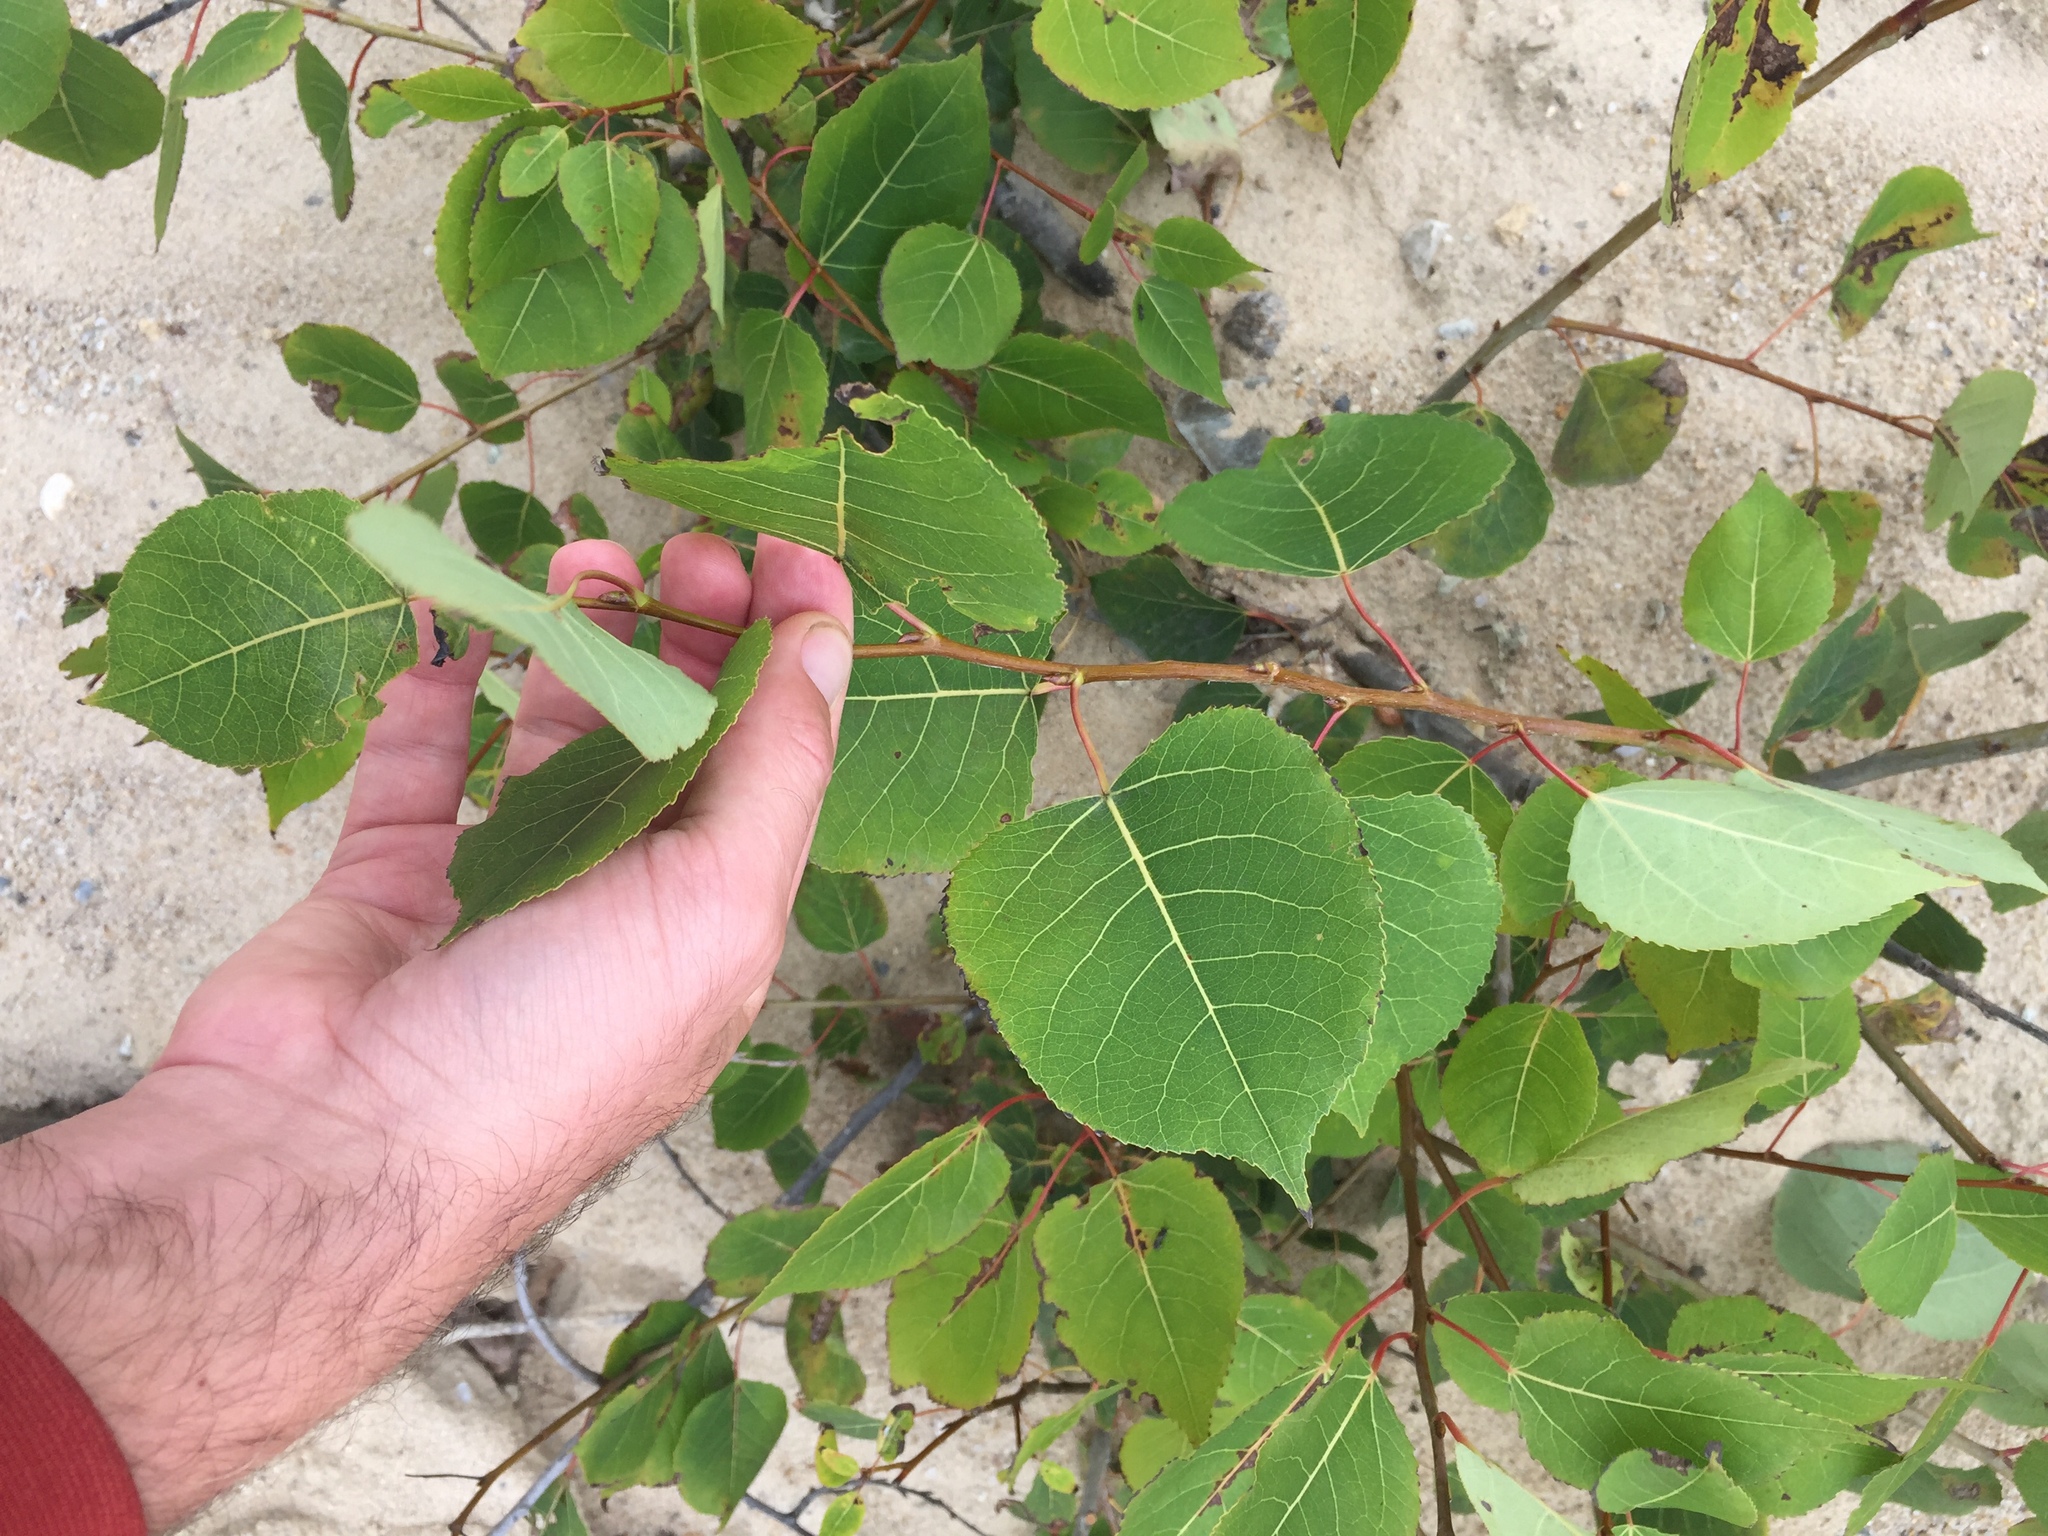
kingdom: Plantae
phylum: Tracheophyta
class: Magnoliopsida
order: Malpighiales
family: Salicaceae
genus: Populus
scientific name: Populus tremuloides
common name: Quaking aspen
